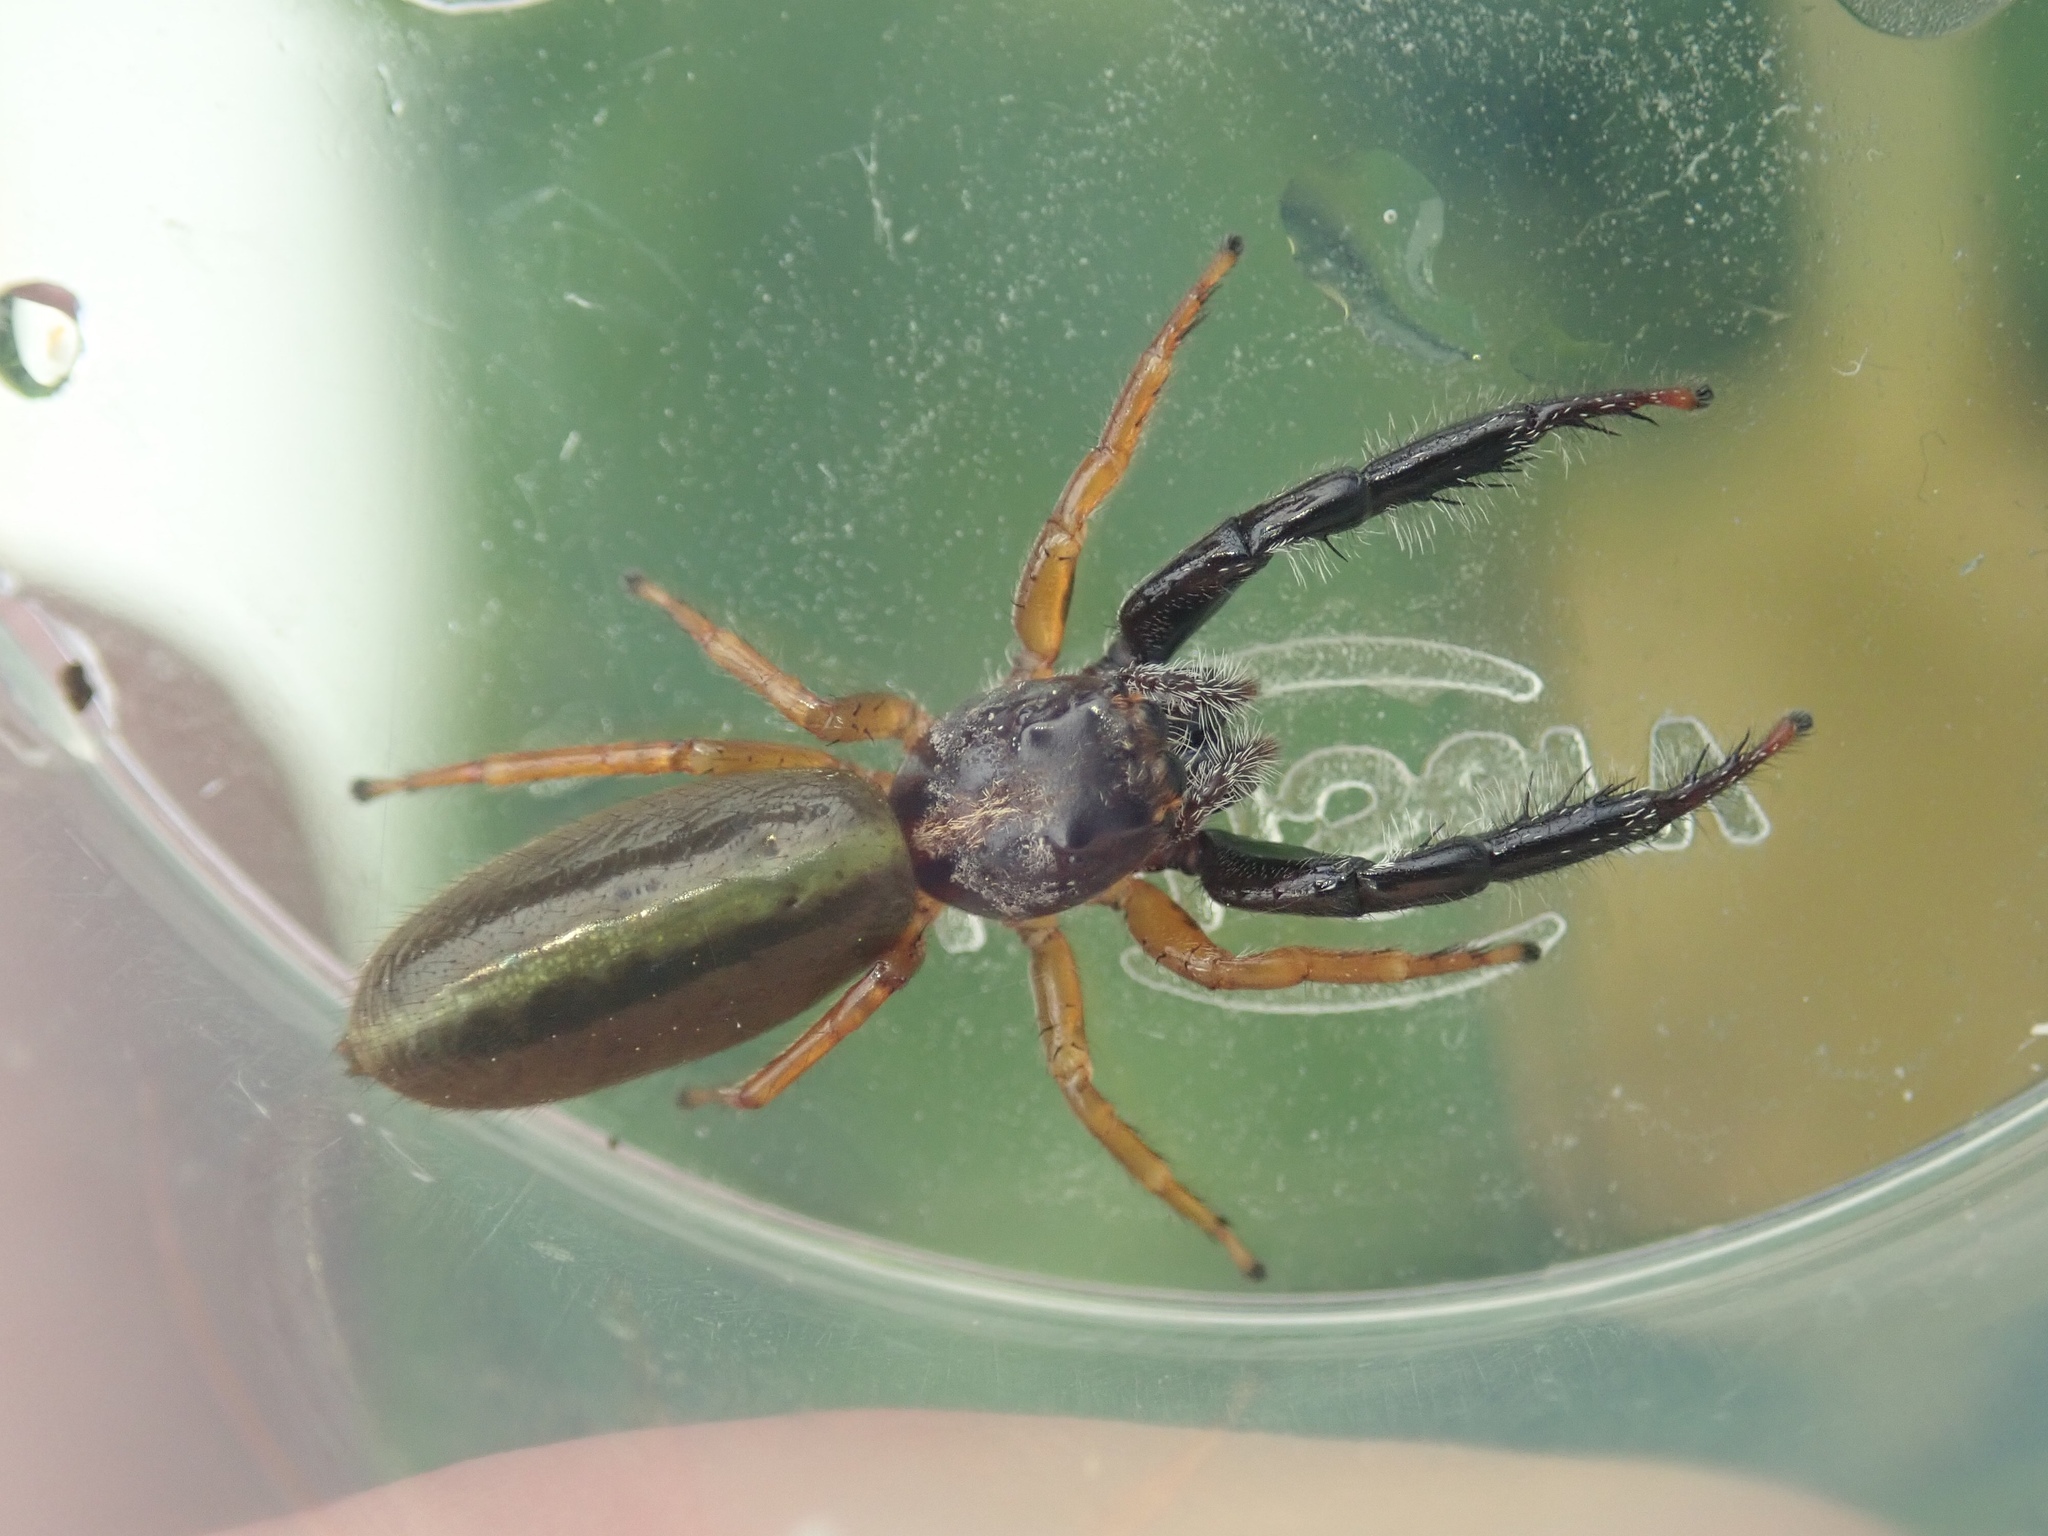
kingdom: Animalia
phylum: Arthropoda
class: Arachnida
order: Araneae
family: Salticidae
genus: Trite
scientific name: Trite planiceps
